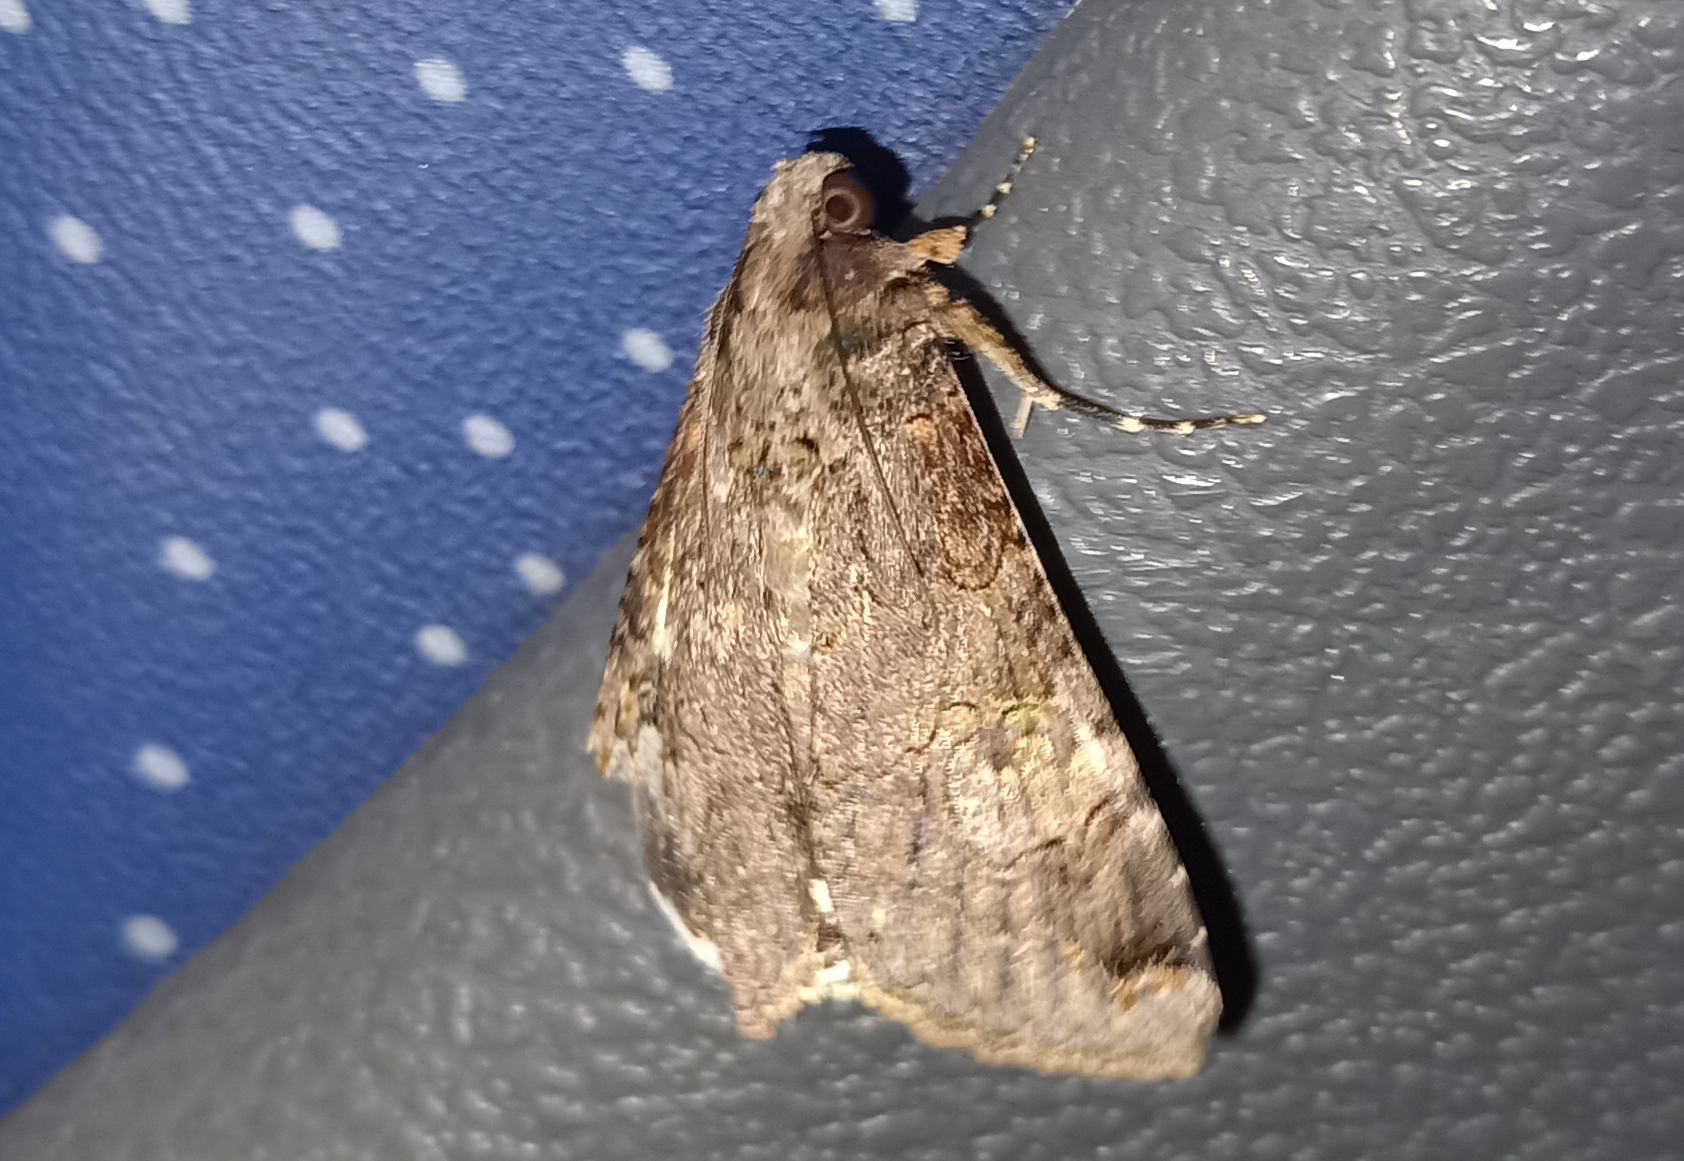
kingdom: Animalia
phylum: Arthropoda
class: Insecta
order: Lepidoptera
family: Erebidae
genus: Melipotis
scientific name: Melipotis famelica
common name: Famelica melipotis moth
